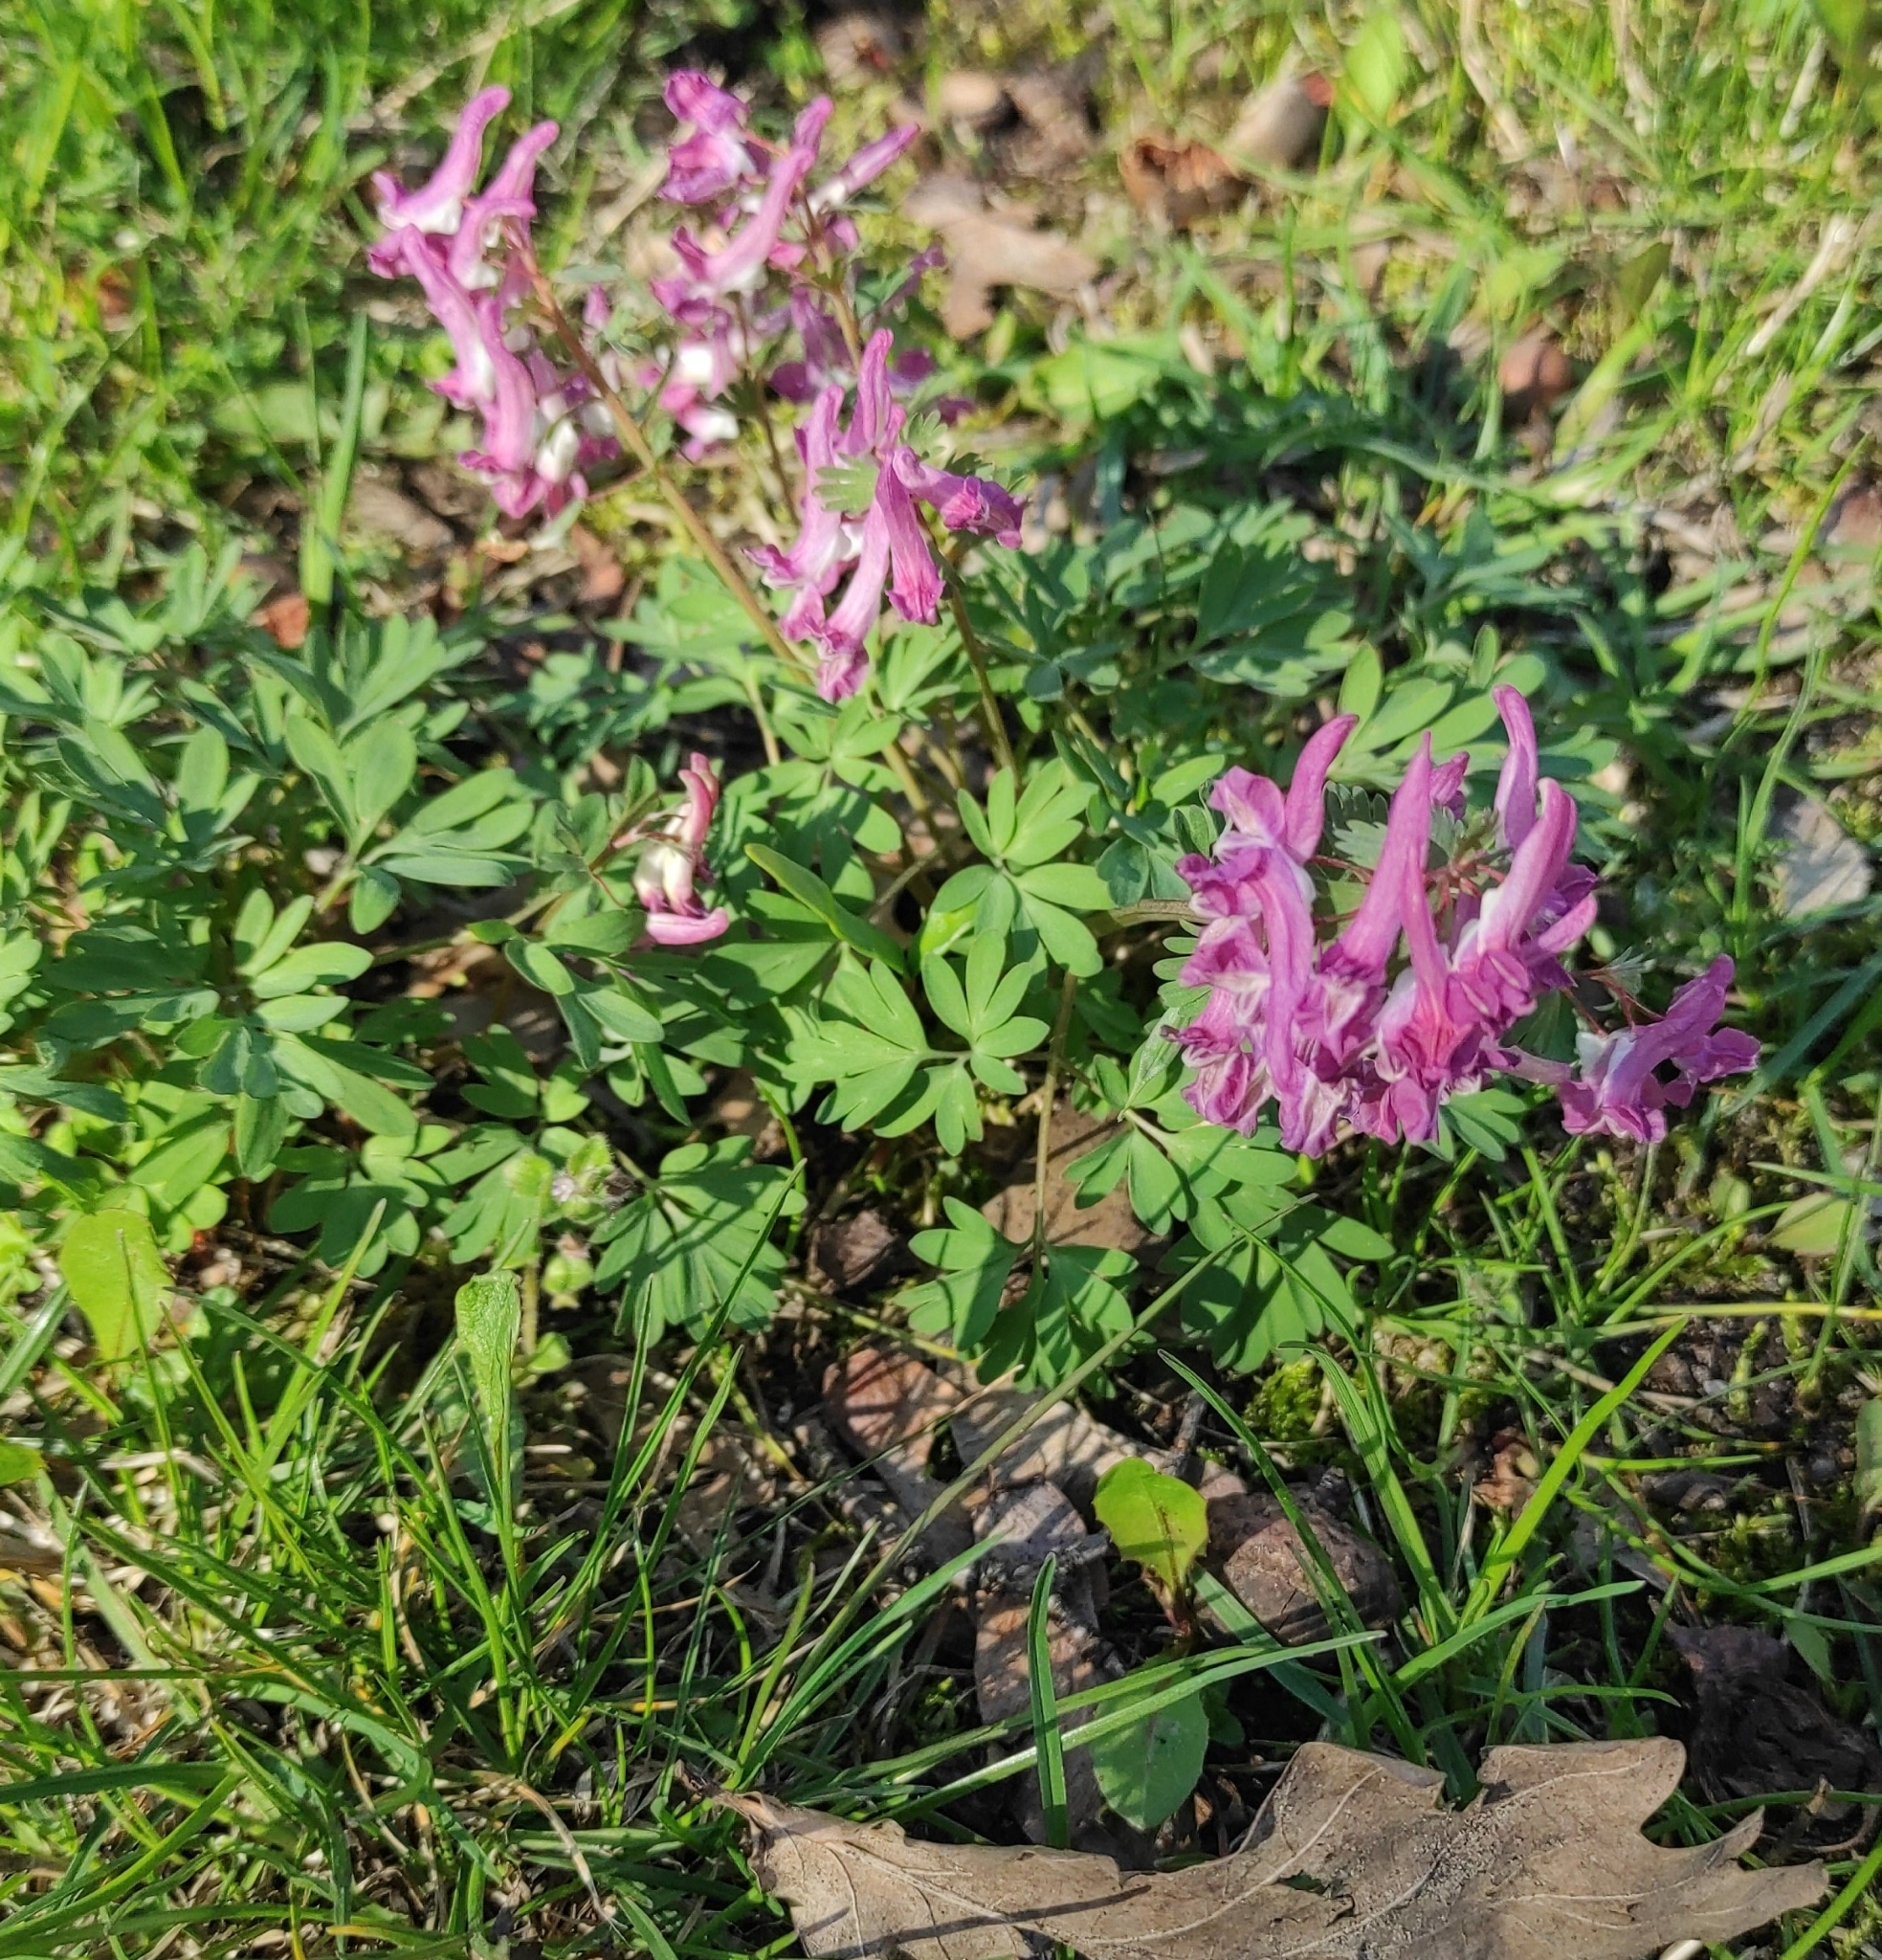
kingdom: Plantae
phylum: Tracheophyta
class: Magnoliopsida
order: Ranunculales
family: Papaveraceae
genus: Corydalis
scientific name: Corydalis solida
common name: Bird-in-a-bush
